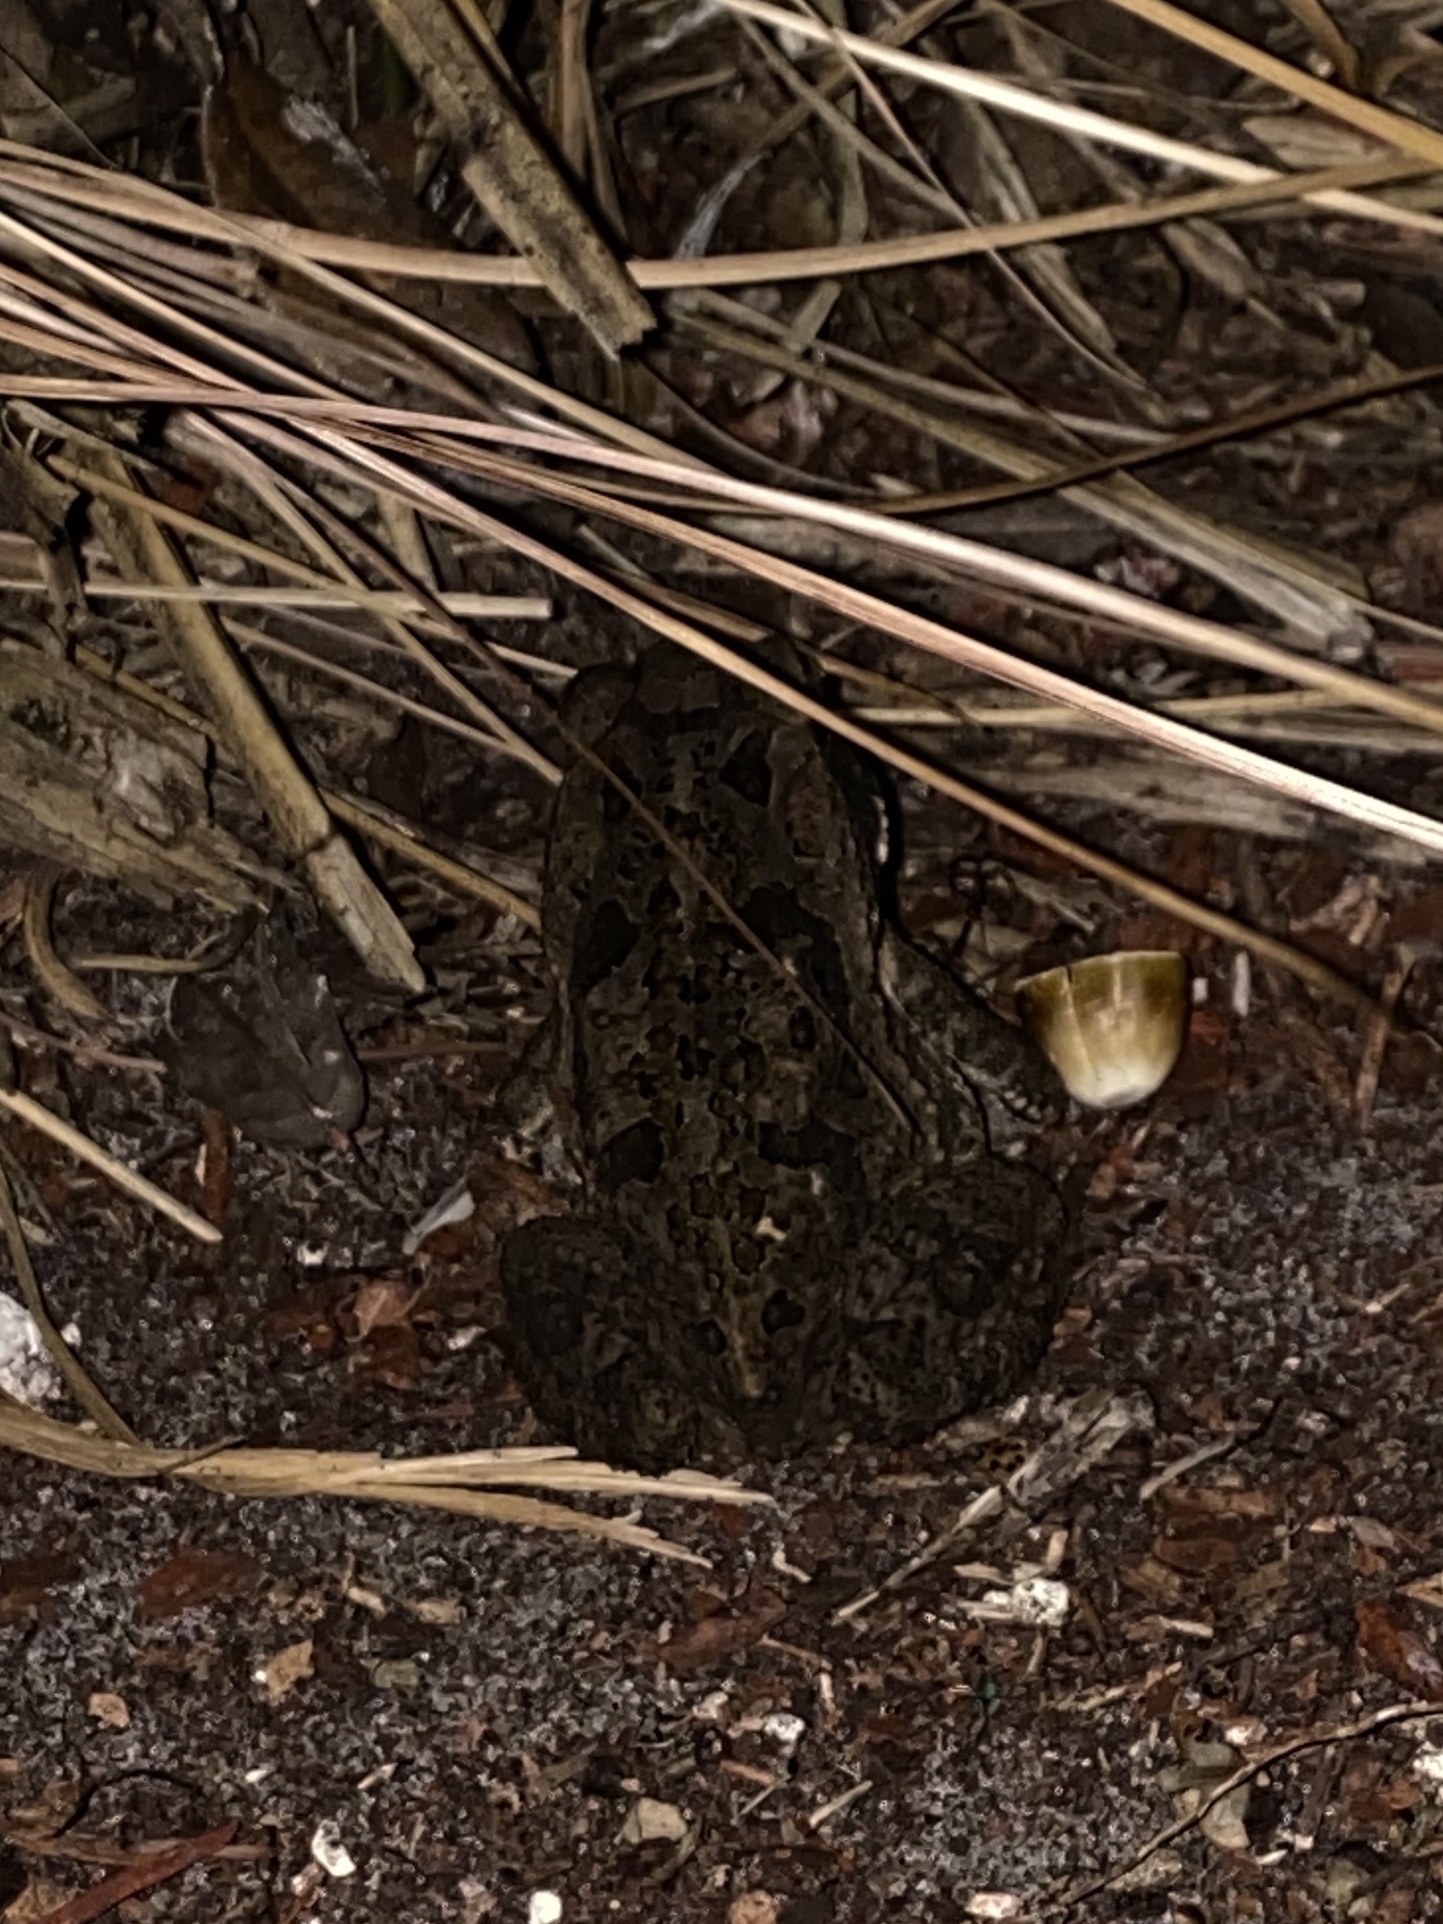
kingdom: Animalia
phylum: Chordata
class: Amphibia
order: Anura
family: Bufonidae
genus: Rhinella
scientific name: Rhinella marina
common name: Cane toad
